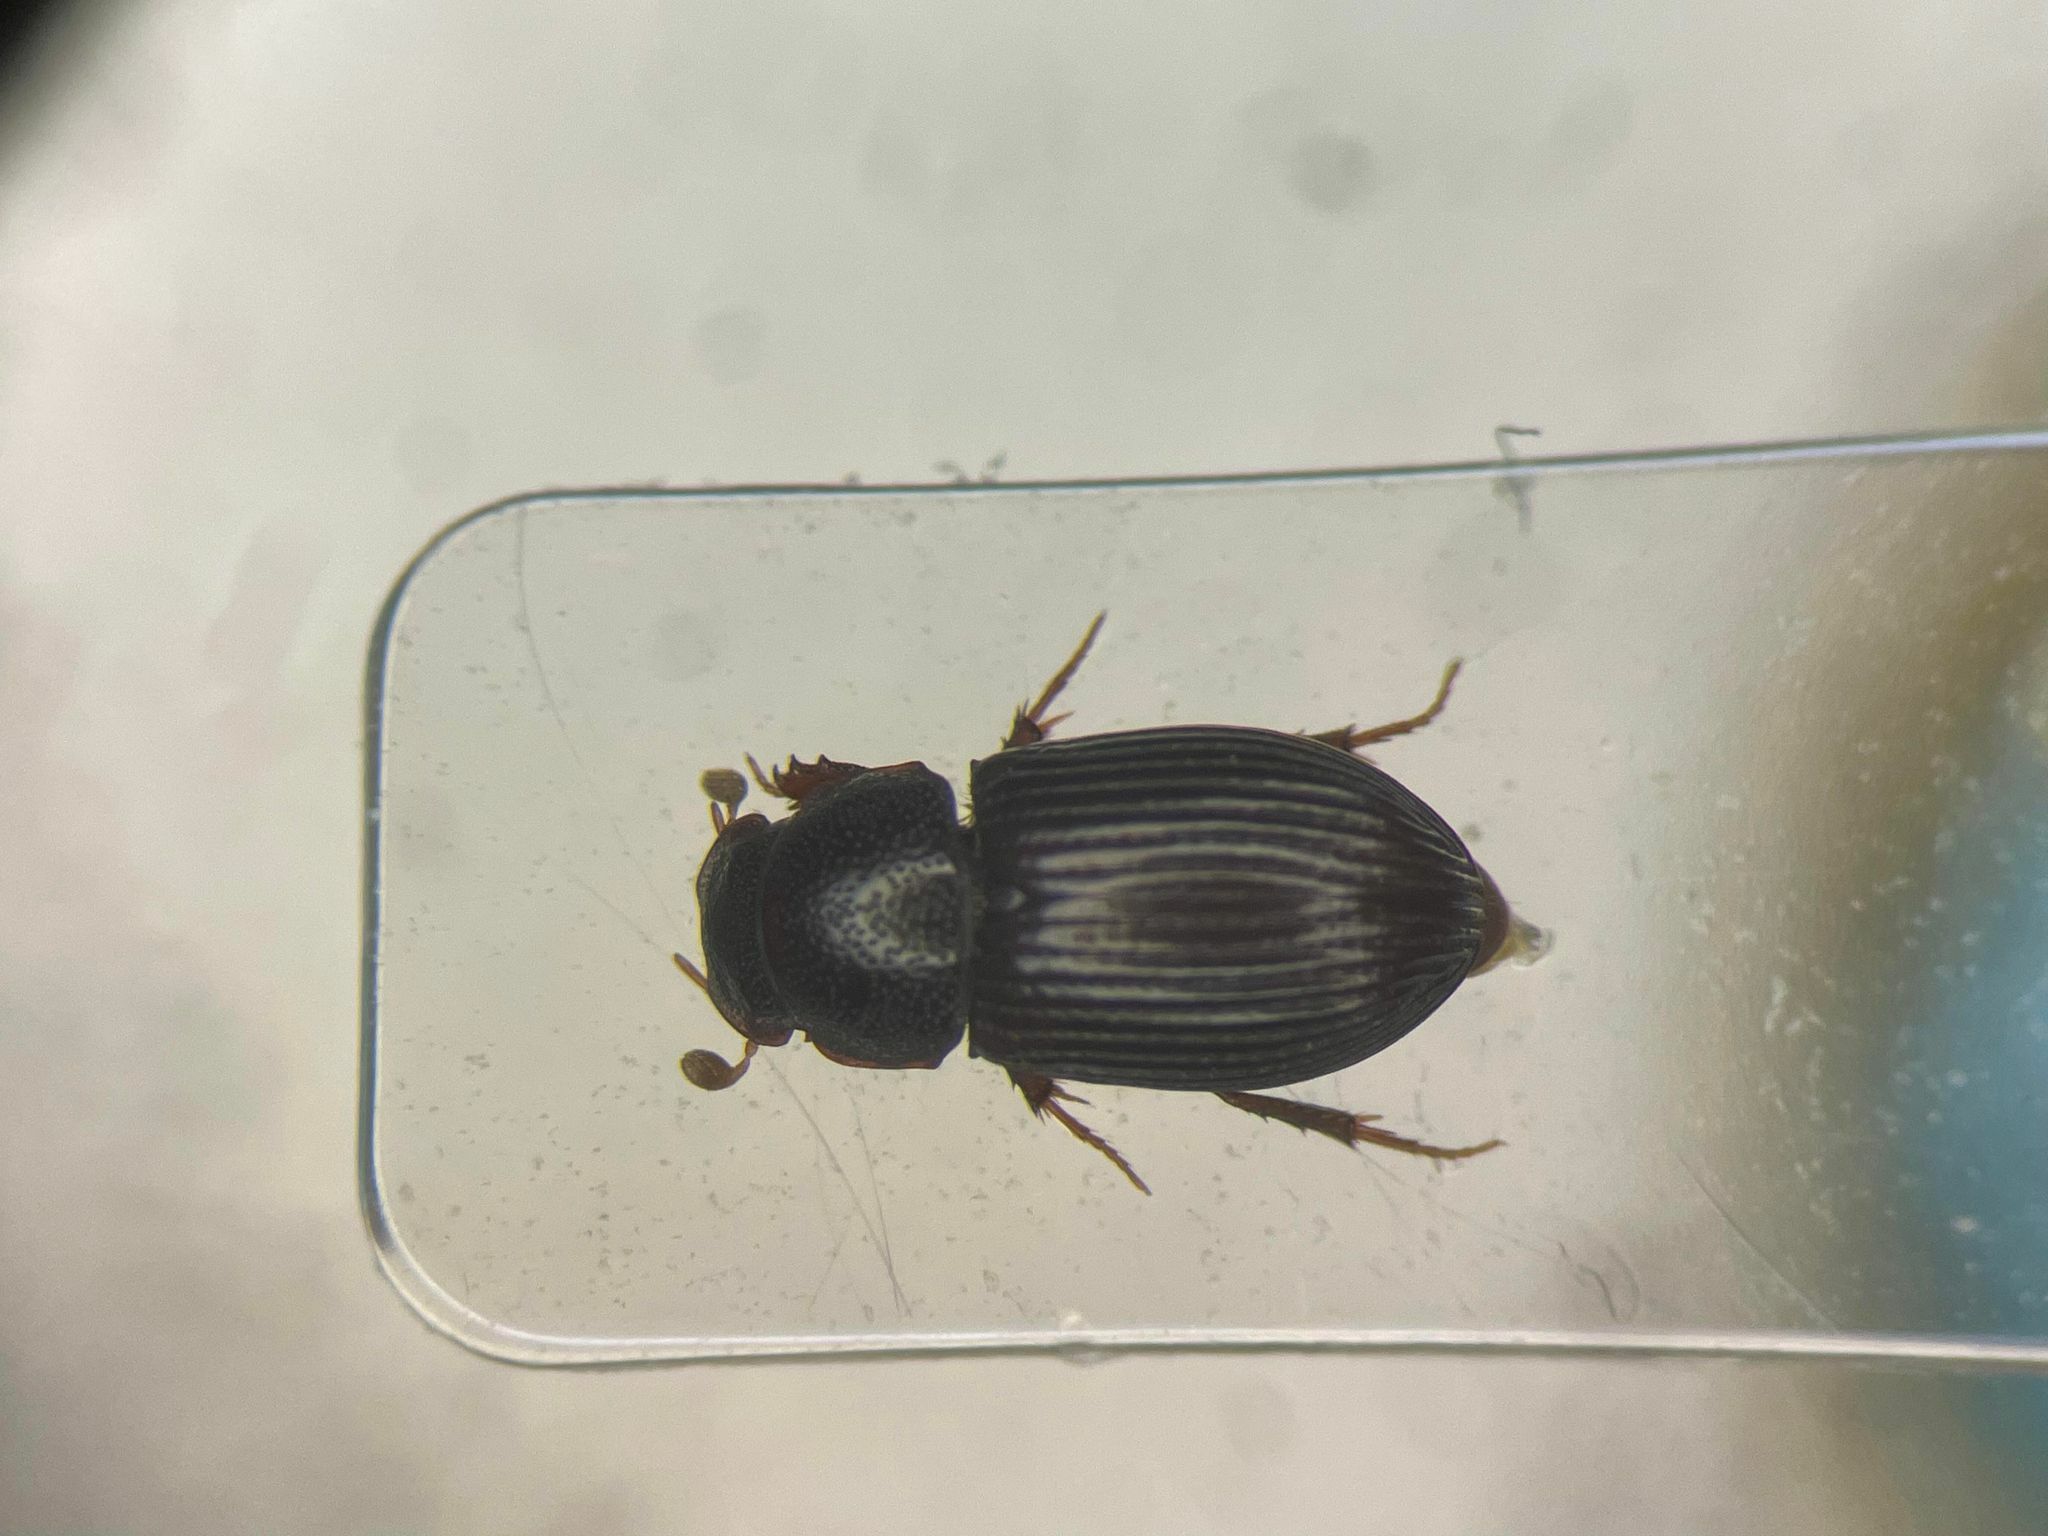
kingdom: Animalia
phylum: Arthropoda
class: Insecta
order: Coleoptera
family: Scarabaeidae
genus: Dialytellus
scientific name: Dialytellus dialytoides
